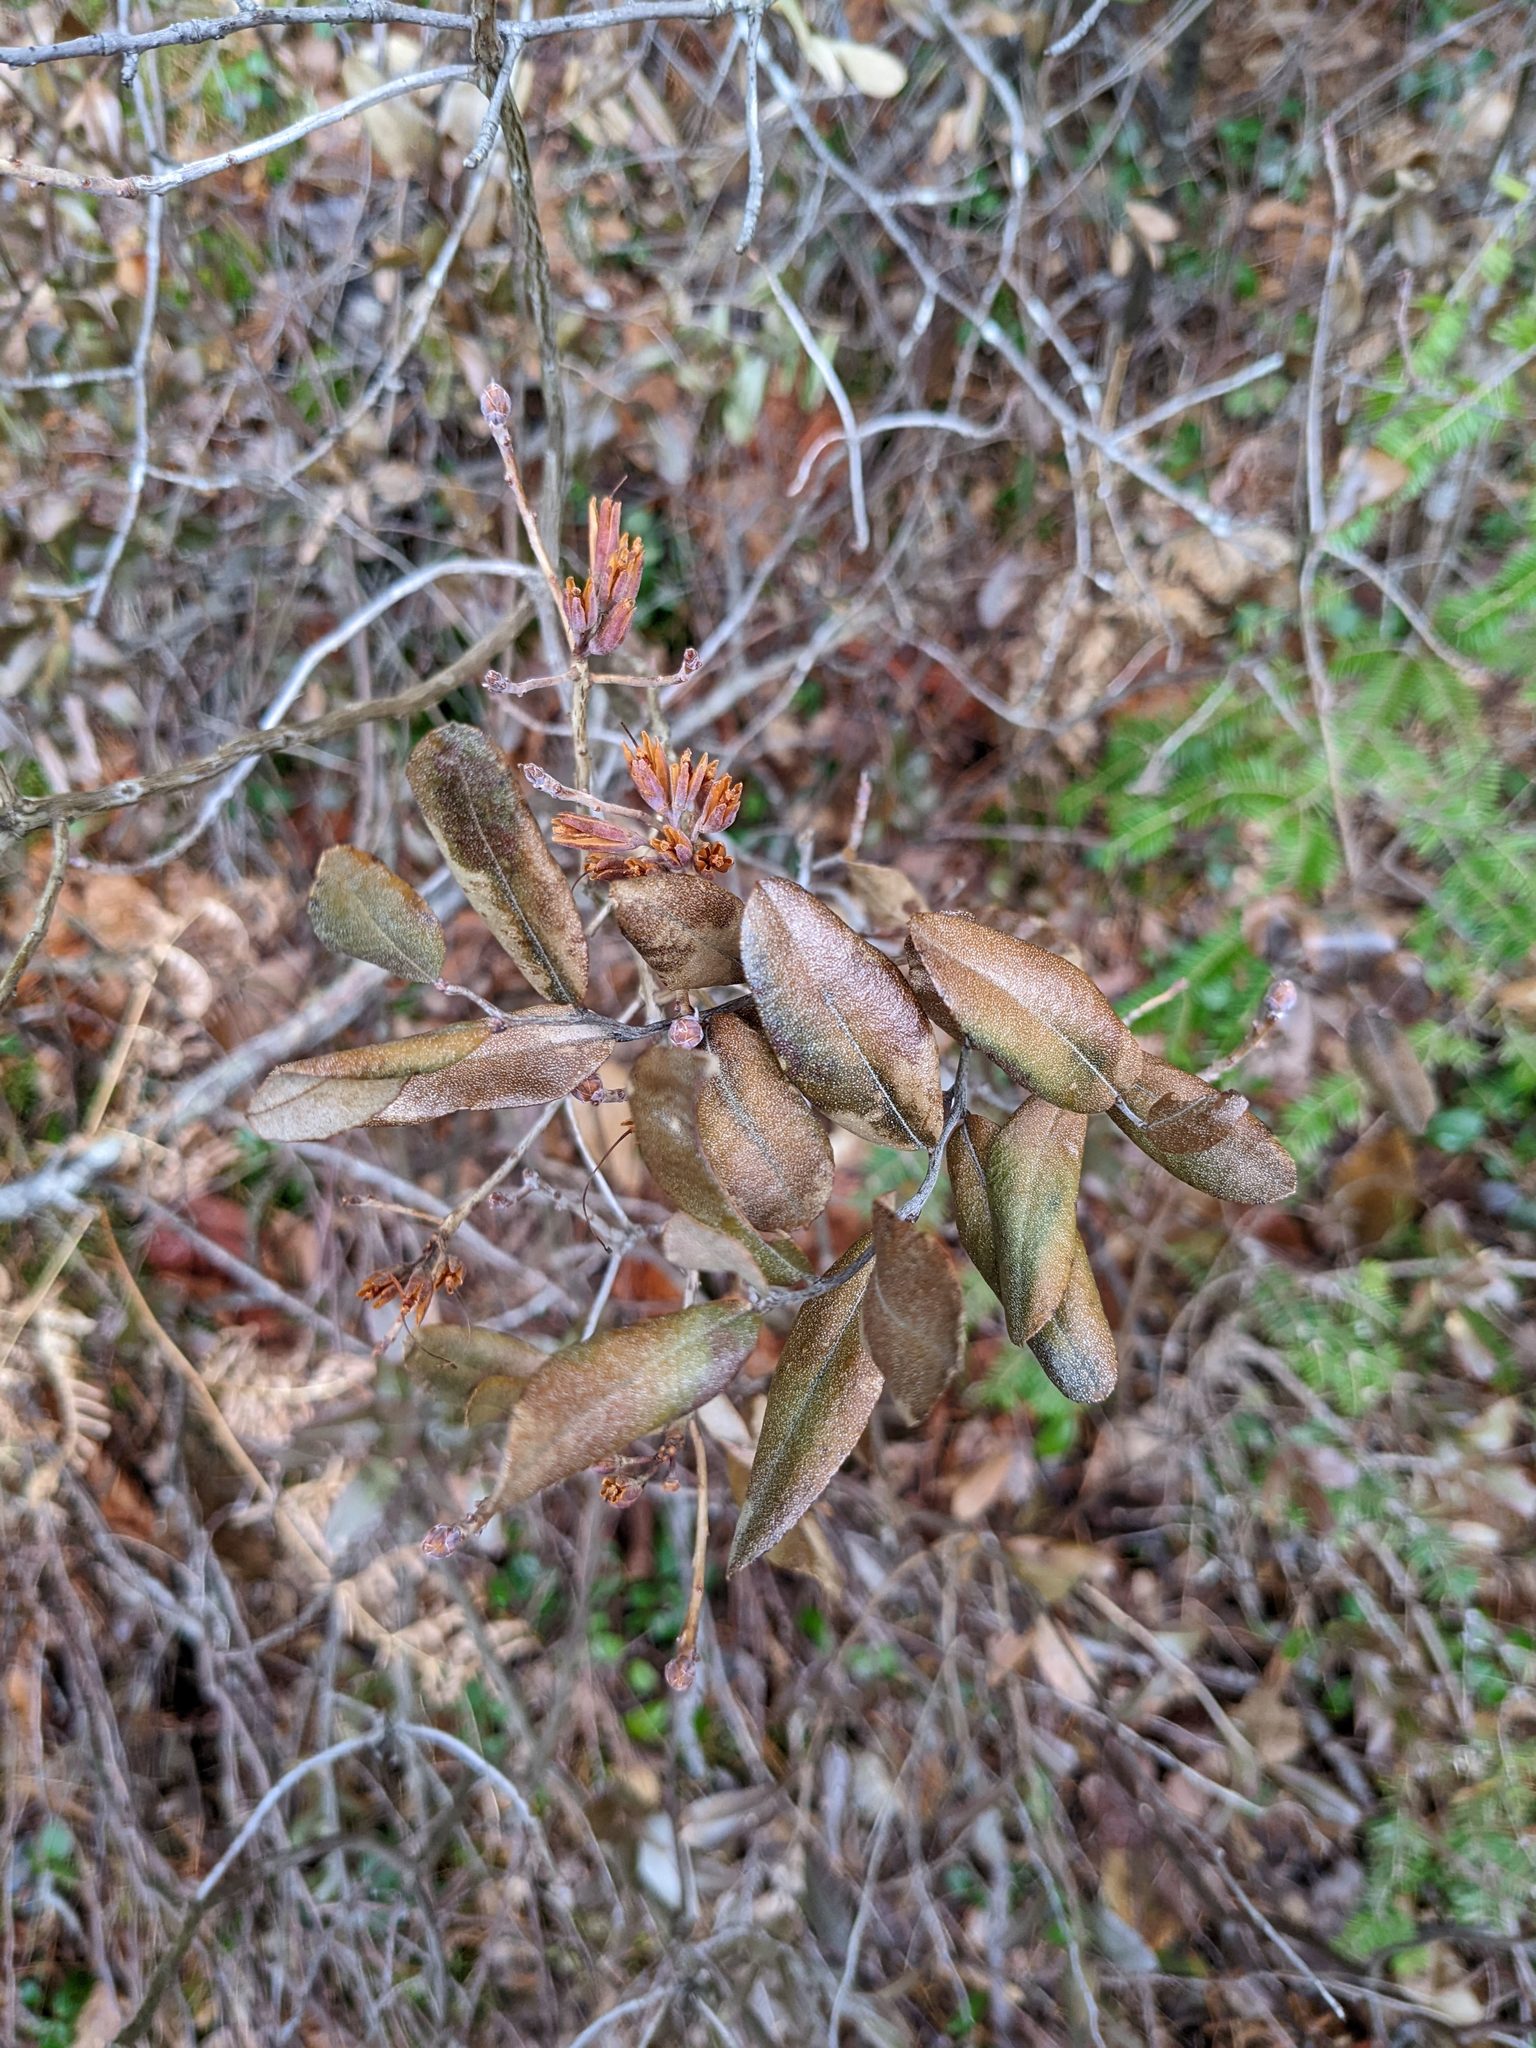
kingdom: Plantae
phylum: Tracheophyta
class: Magnoliopsida
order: Ericales
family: Ericaceae
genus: Chamaedaphne
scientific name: Chamaedaphne calyculata
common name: Leatherleaf
